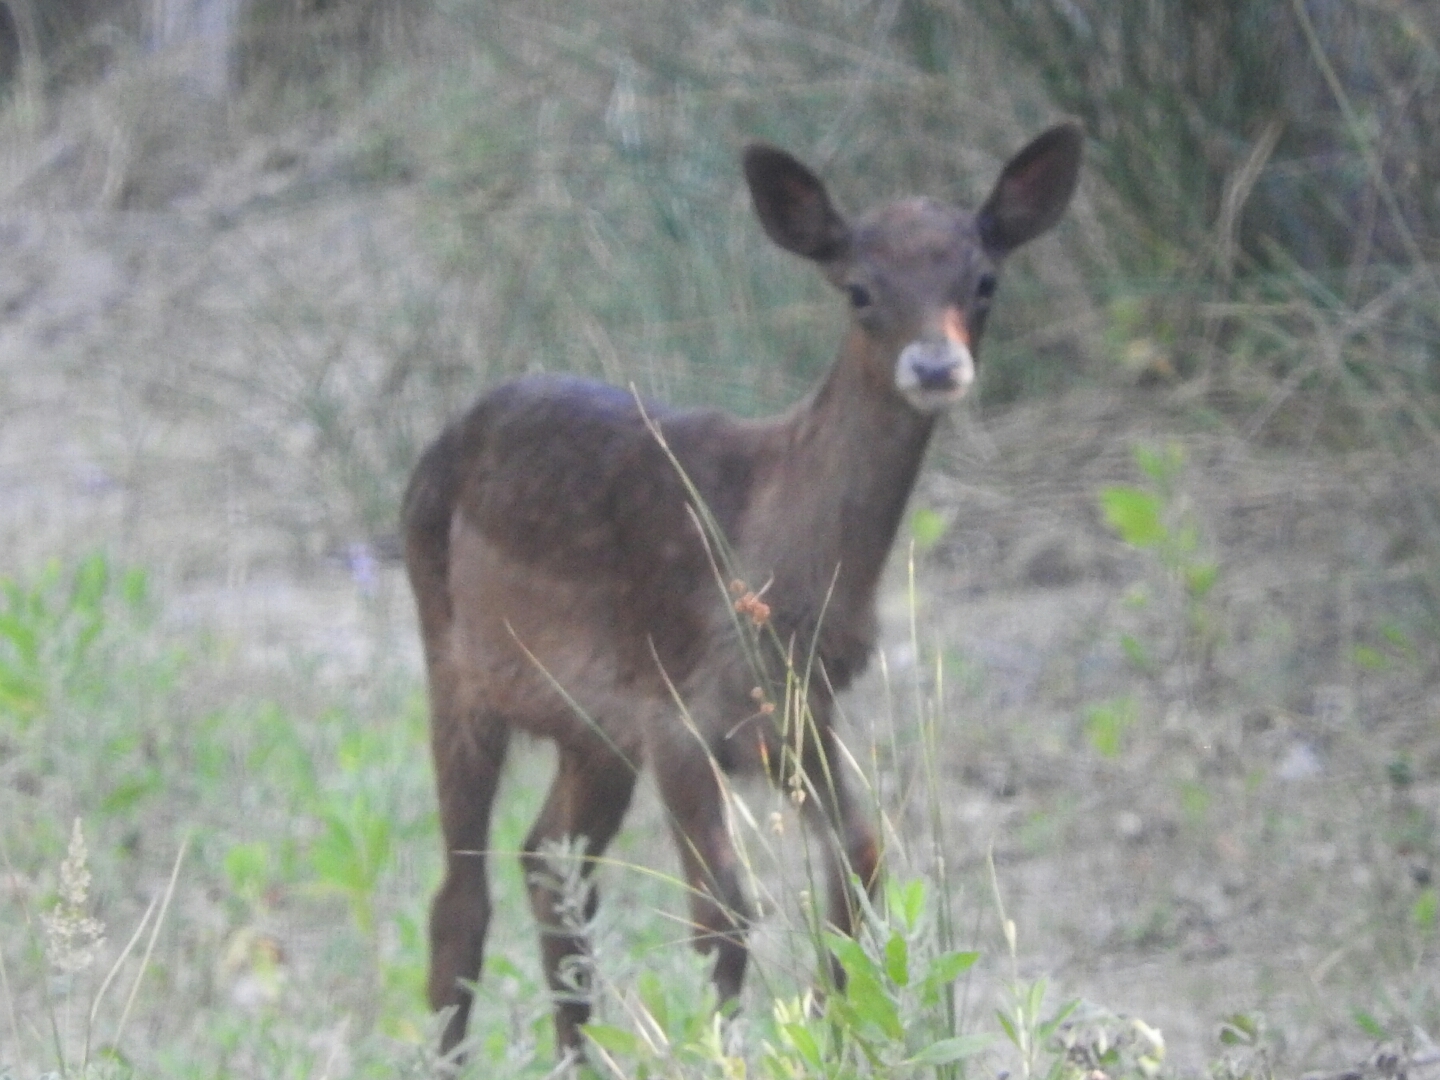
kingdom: Animalia
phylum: Chordata
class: Mammalia
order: Artiodactyla
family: Cervidae
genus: Dama
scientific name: Dama dama
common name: Fallow deer
